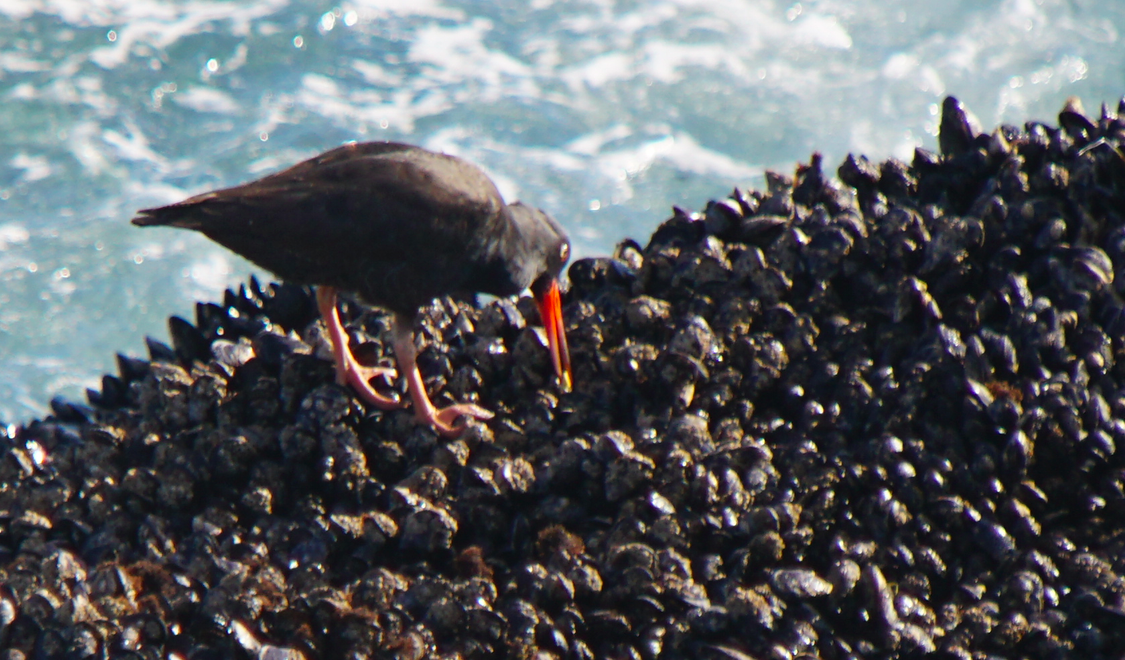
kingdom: Animalia
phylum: Chordata
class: Aves
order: Charadriiformes
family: Haematopodidae
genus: Haematopus
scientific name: Haematopus bachmani
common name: Black oystercatcher
